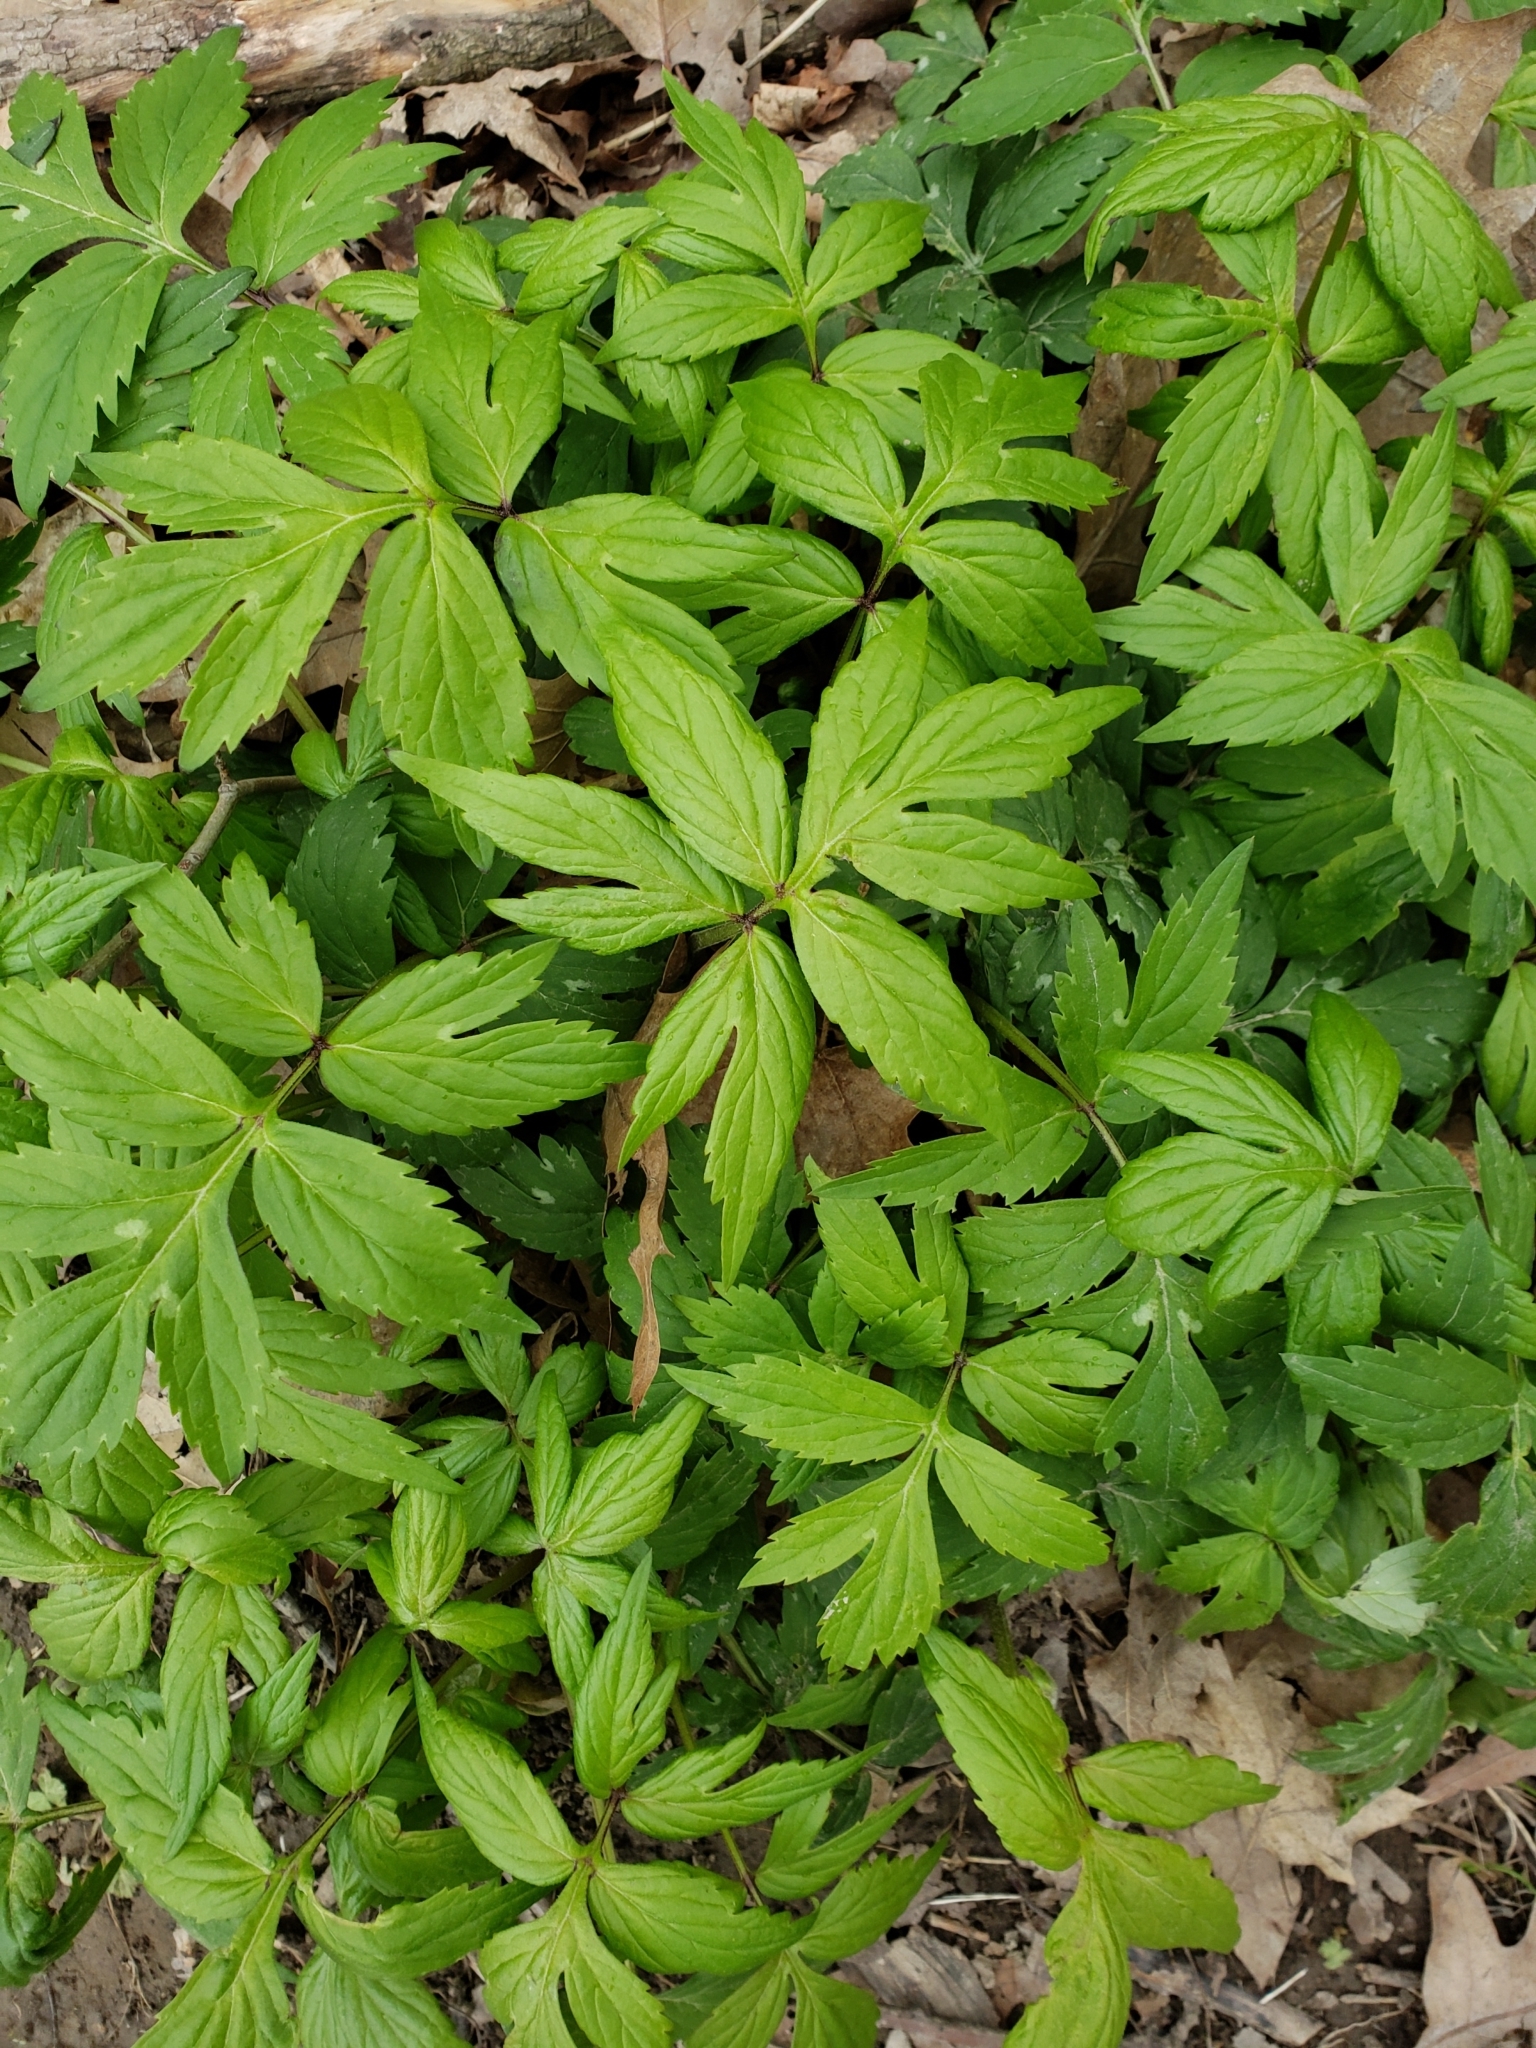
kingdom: Plantae
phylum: Tracheophyta
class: Magnoliopsida
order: Boraginales
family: Hydrophyllaceae
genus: Hydrophyllum
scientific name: Hydrophyllum virginianum
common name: Virginia waterleaf
